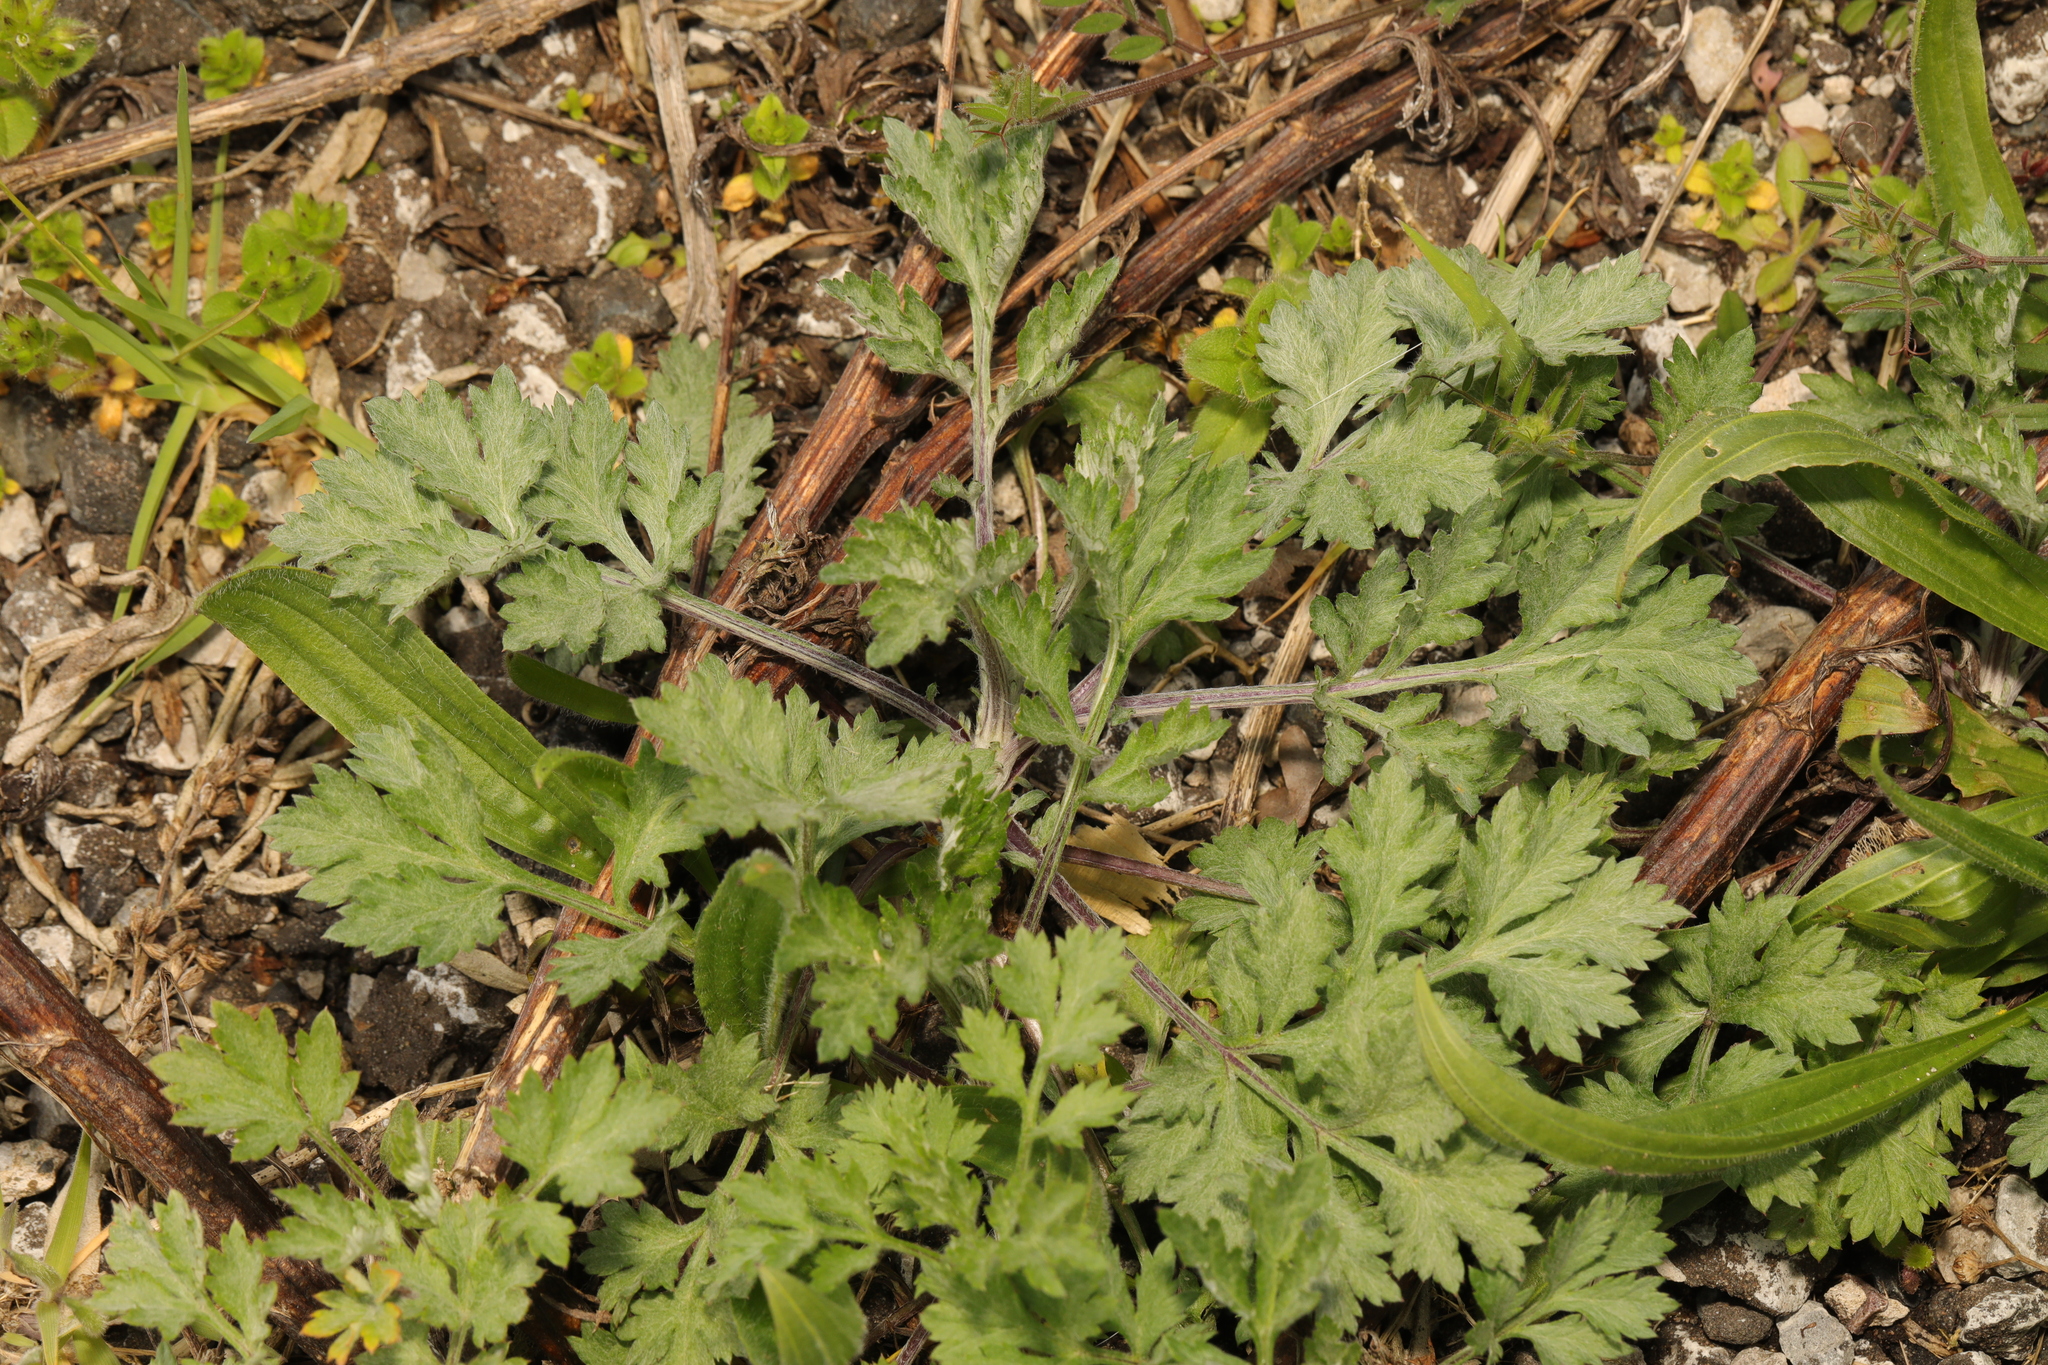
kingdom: Plantae
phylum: Tracheophyta
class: Magnoliopsida
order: Asterales
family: Asteraceae
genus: Artemisia
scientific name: Artemisia vulgaris
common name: Mugwort
